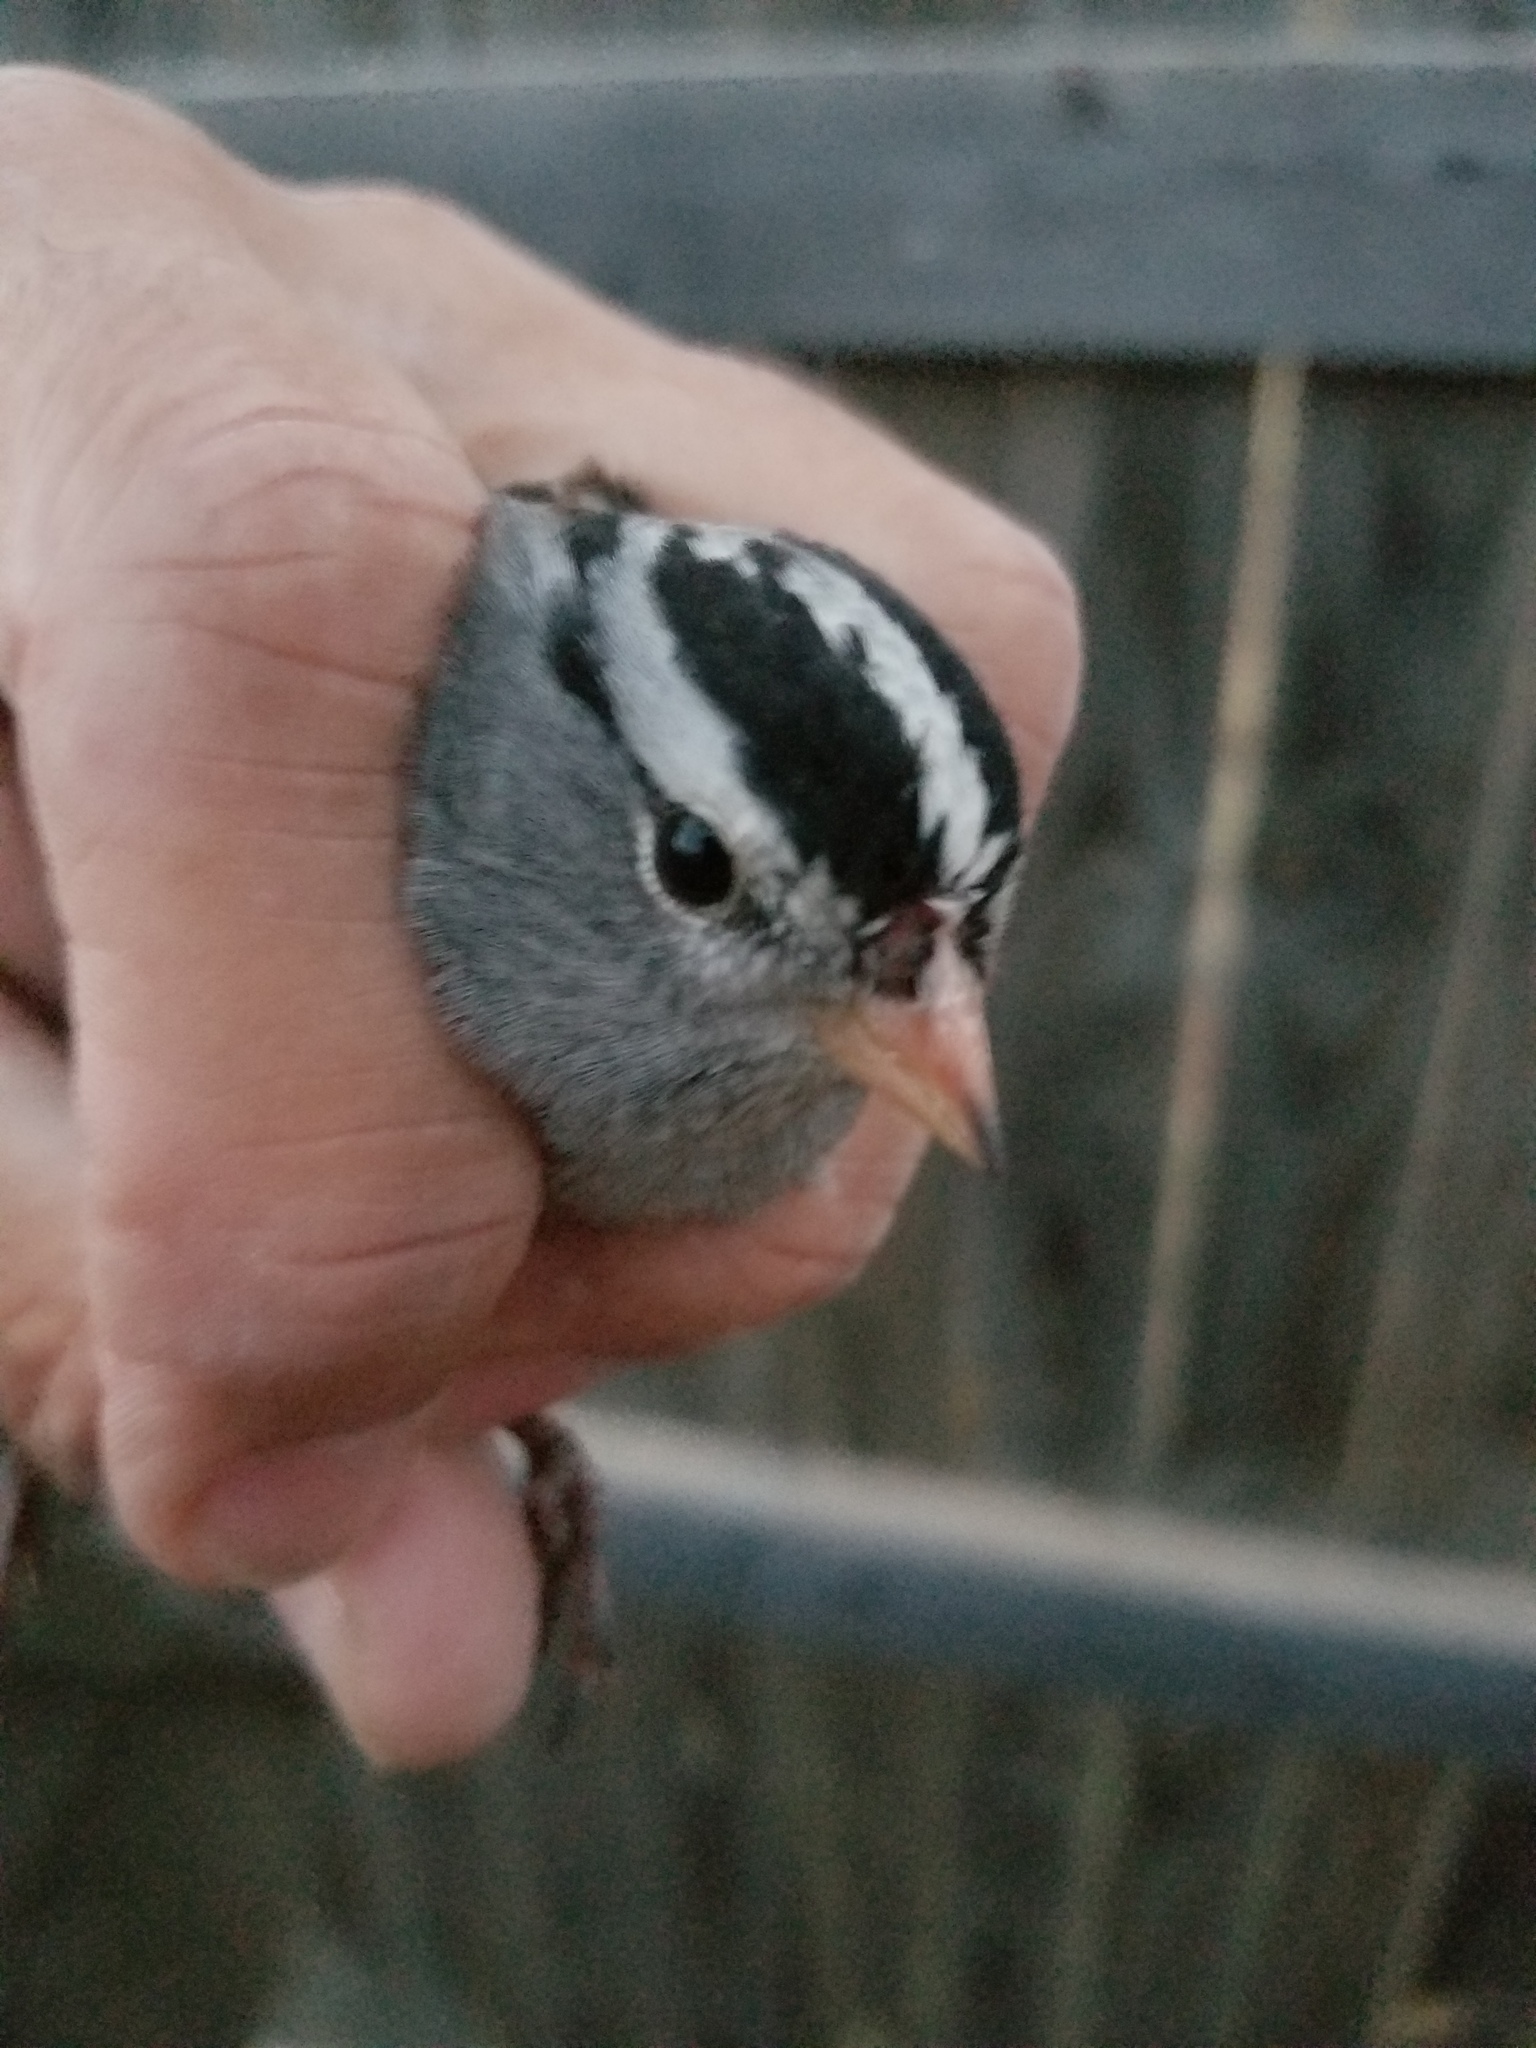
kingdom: Animalia
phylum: Chordata
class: Aves
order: Passeriformes
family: Passerellidae
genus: Zonotrichia
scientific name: Zonotrichia leucophrys
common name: White-crowned sparrow
